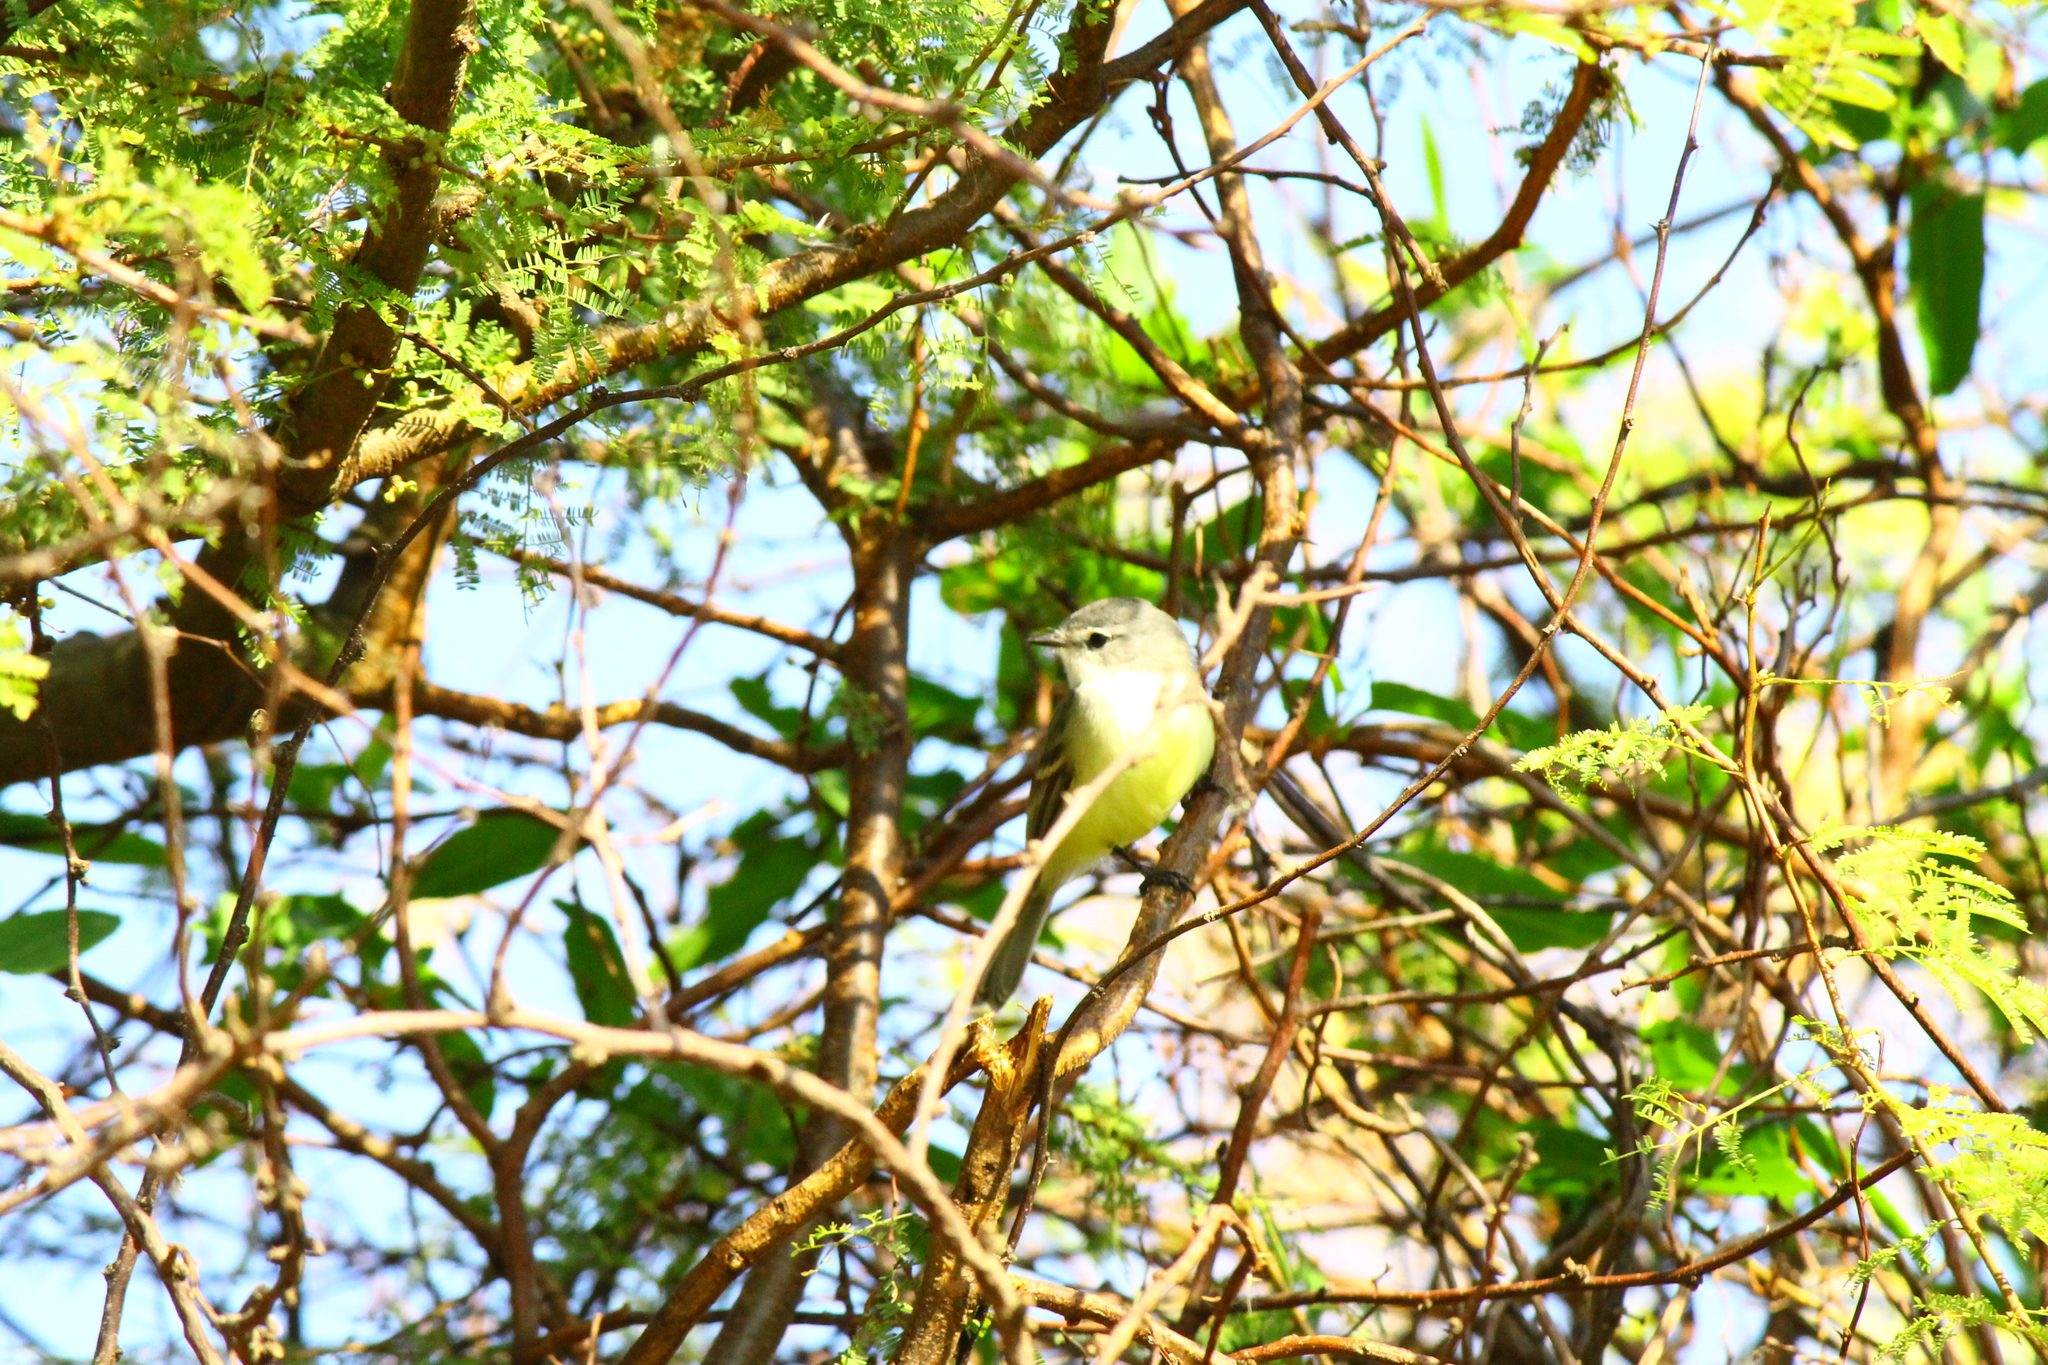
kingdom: Animalia
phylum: Chordata
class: Aves
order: Passeriformes
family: Tyrannidae
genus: Serpophaga
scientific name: Serpophaga subcristata
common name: White-crested tyrannulet
